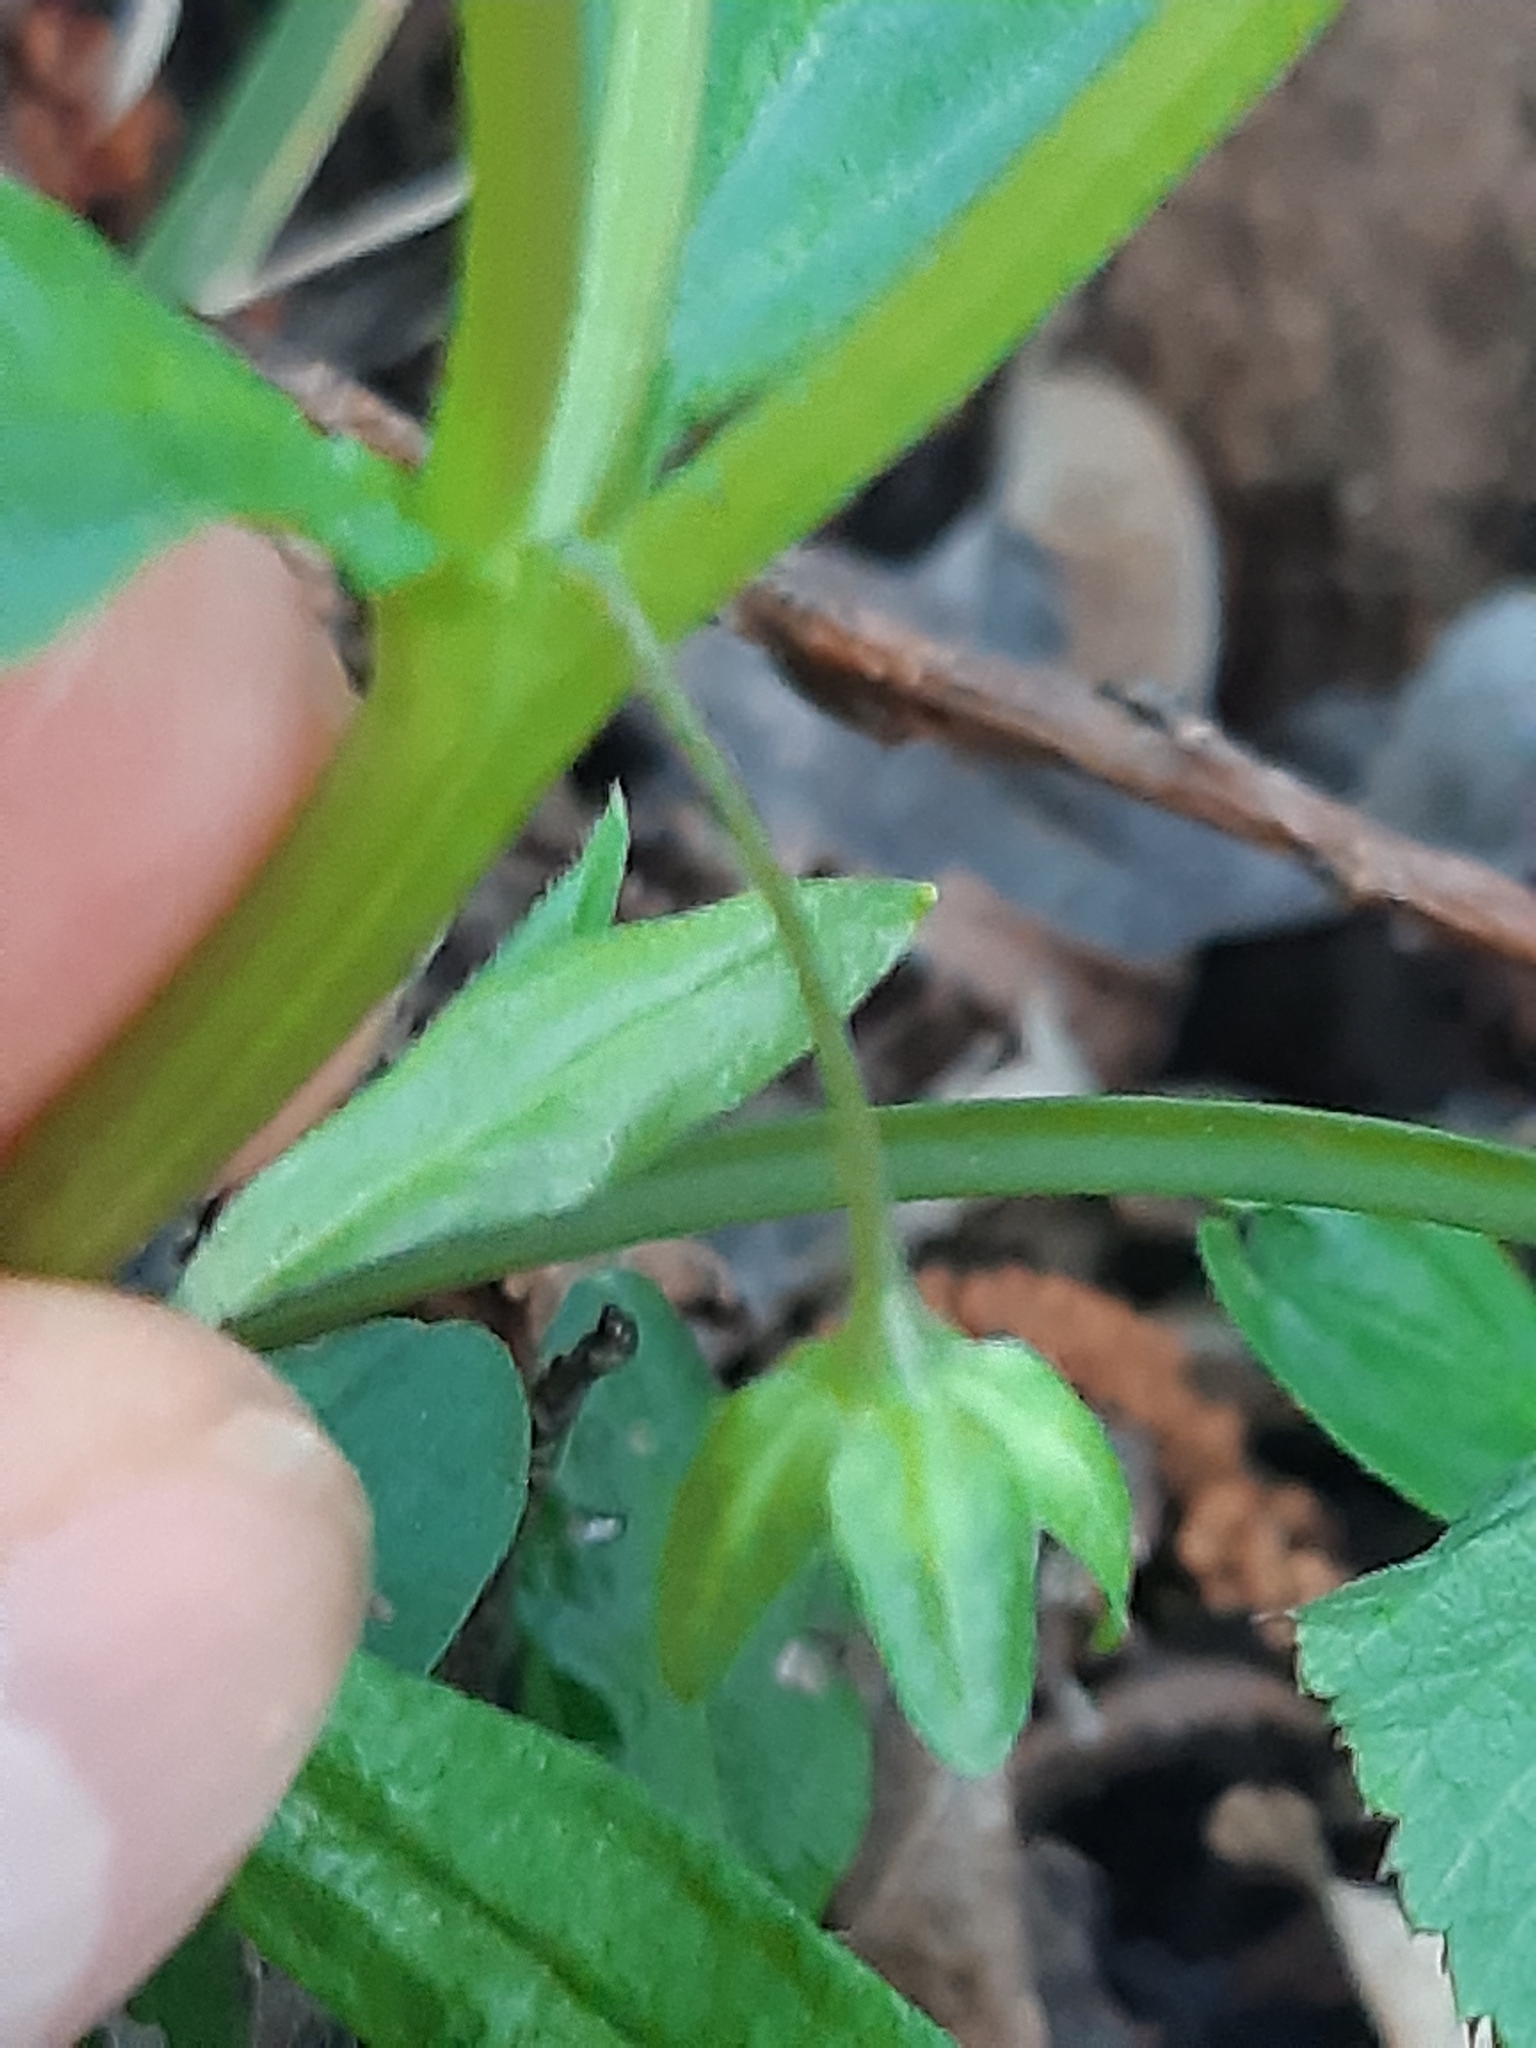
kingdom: Plantae
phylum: Tracheophyta
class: Magnoliopsida
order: Boraginales
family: Boraginaceae
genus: Memoremea
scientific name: Memoremea scorpioides
